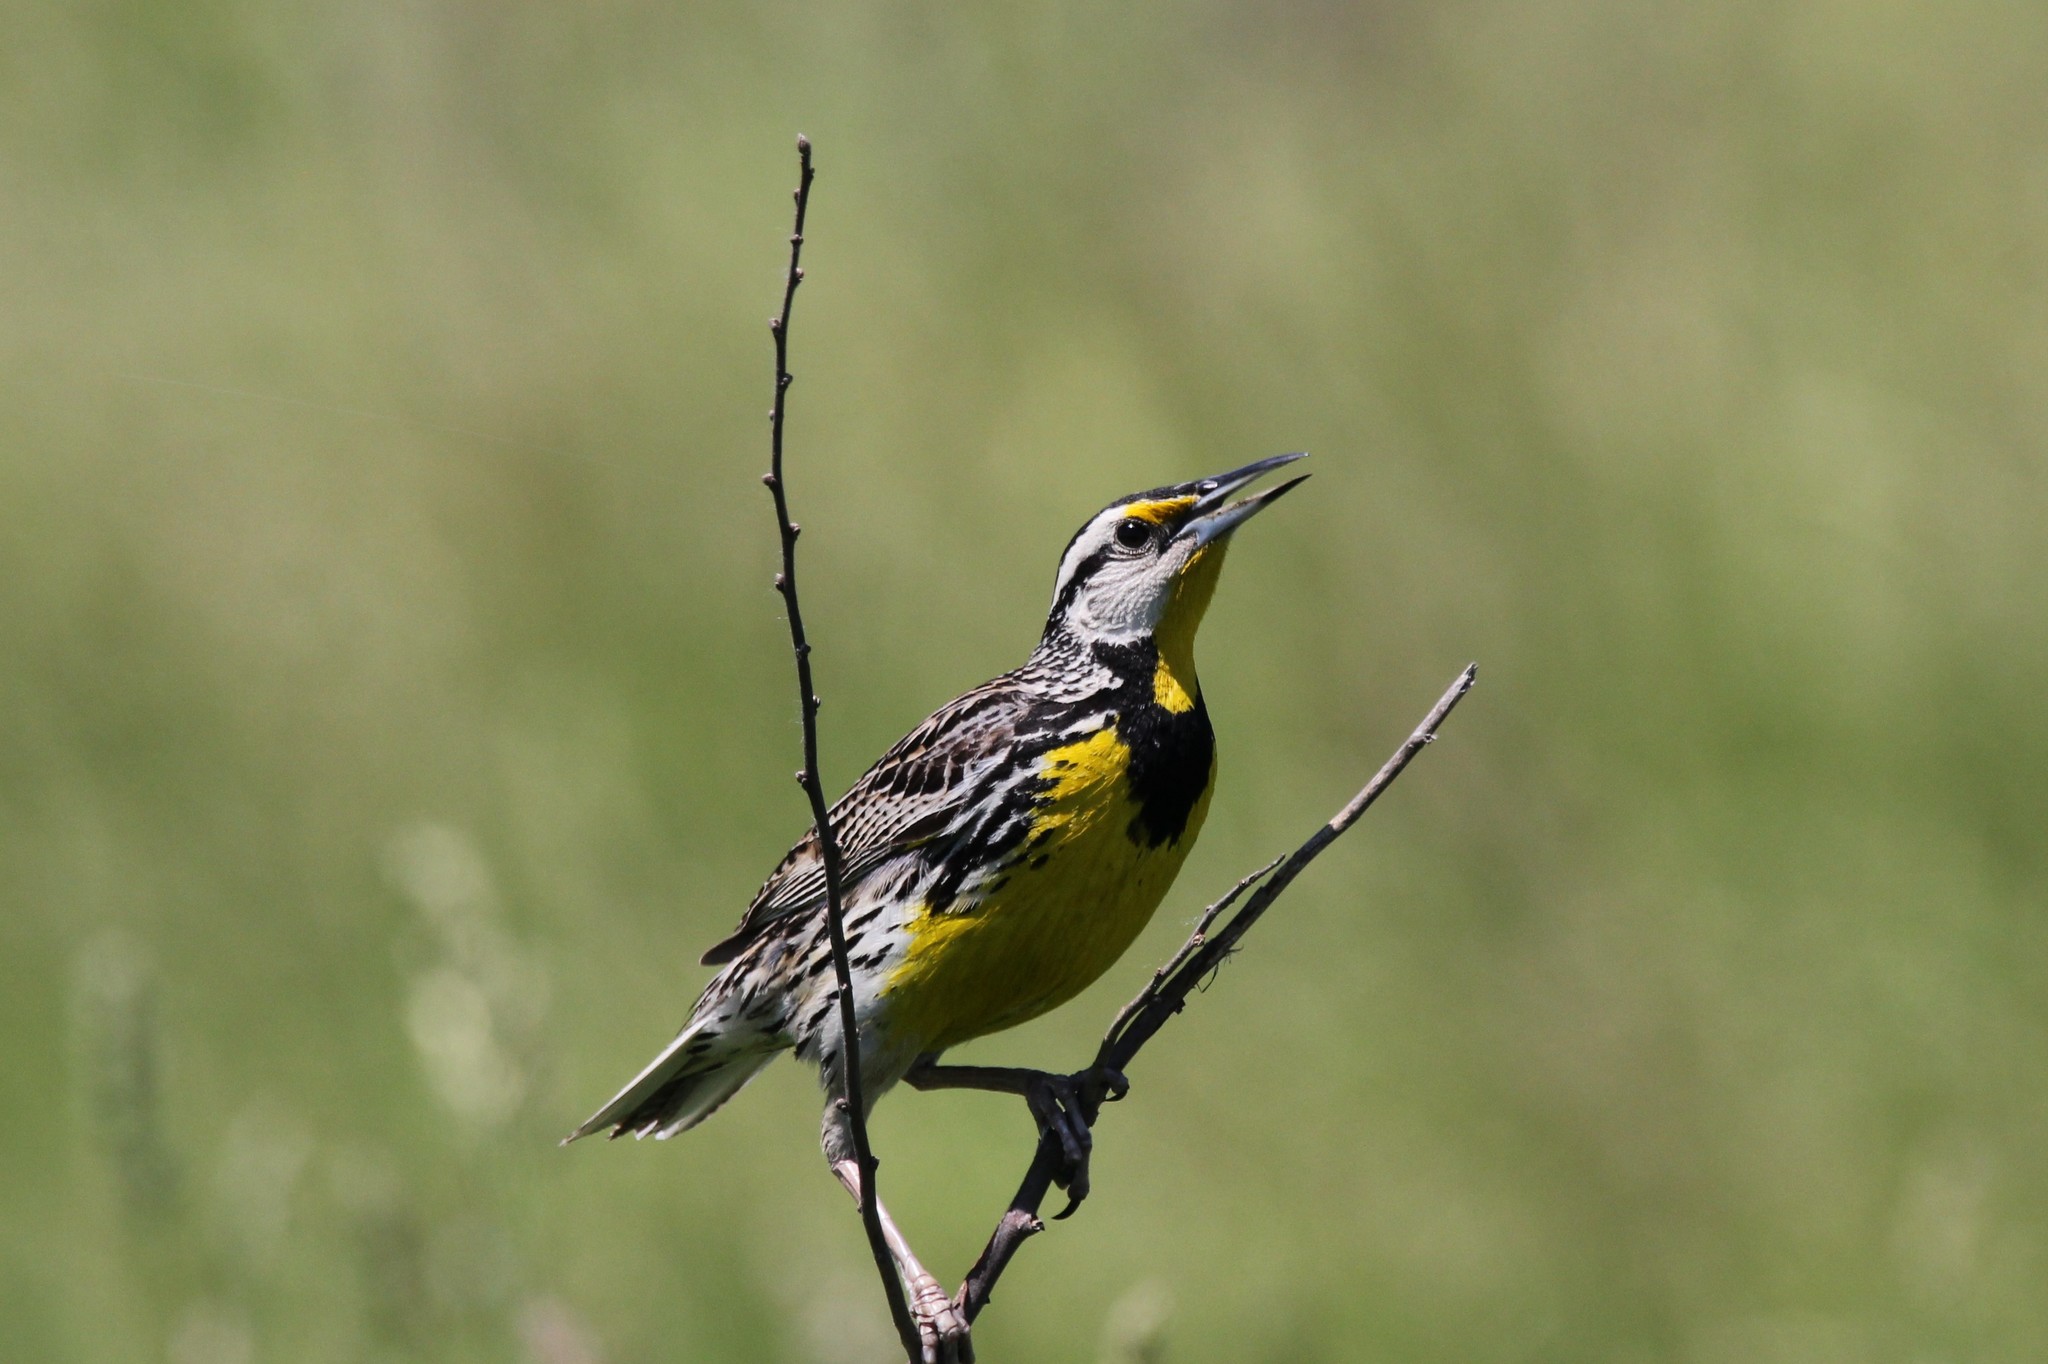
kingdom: Animalia
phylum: Chordata
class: Aves
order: Passeriformes
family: Icteridae
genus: Sturnella
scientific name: Sturnella magna
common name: Eastern meadowlark
